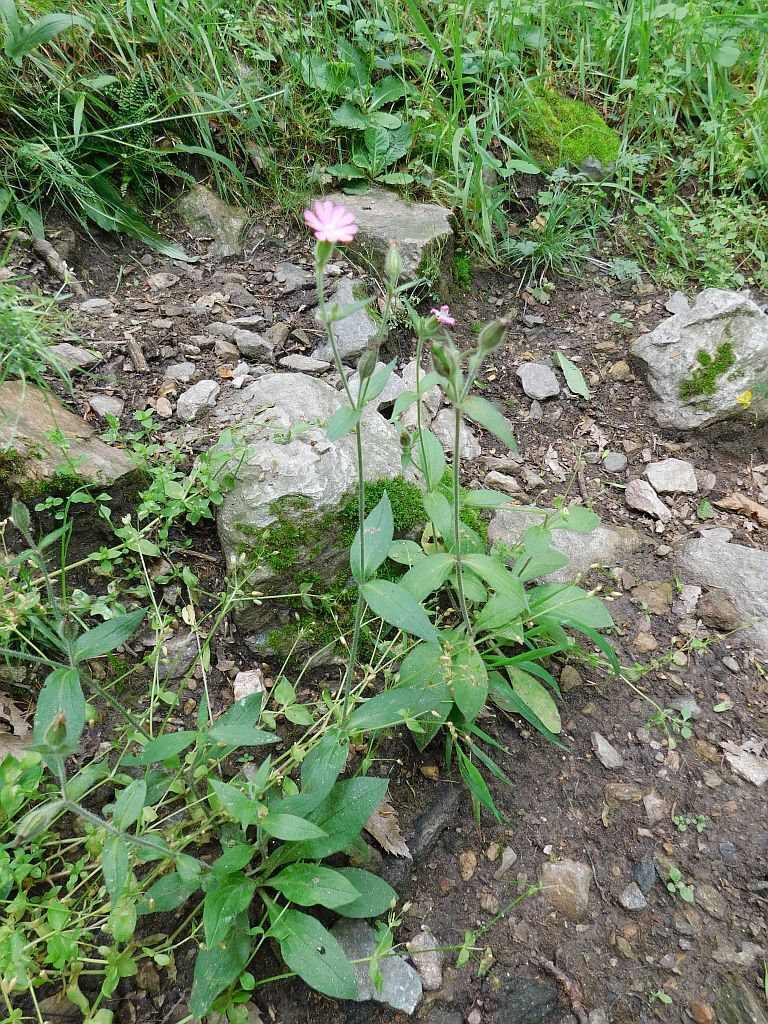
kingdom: Plantae
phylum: Tracheophyta
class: Magnoliopsida
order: Caryophyllales
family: Caryophyllaceae
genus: Silene
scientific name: Silene dioica
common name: Red campion
